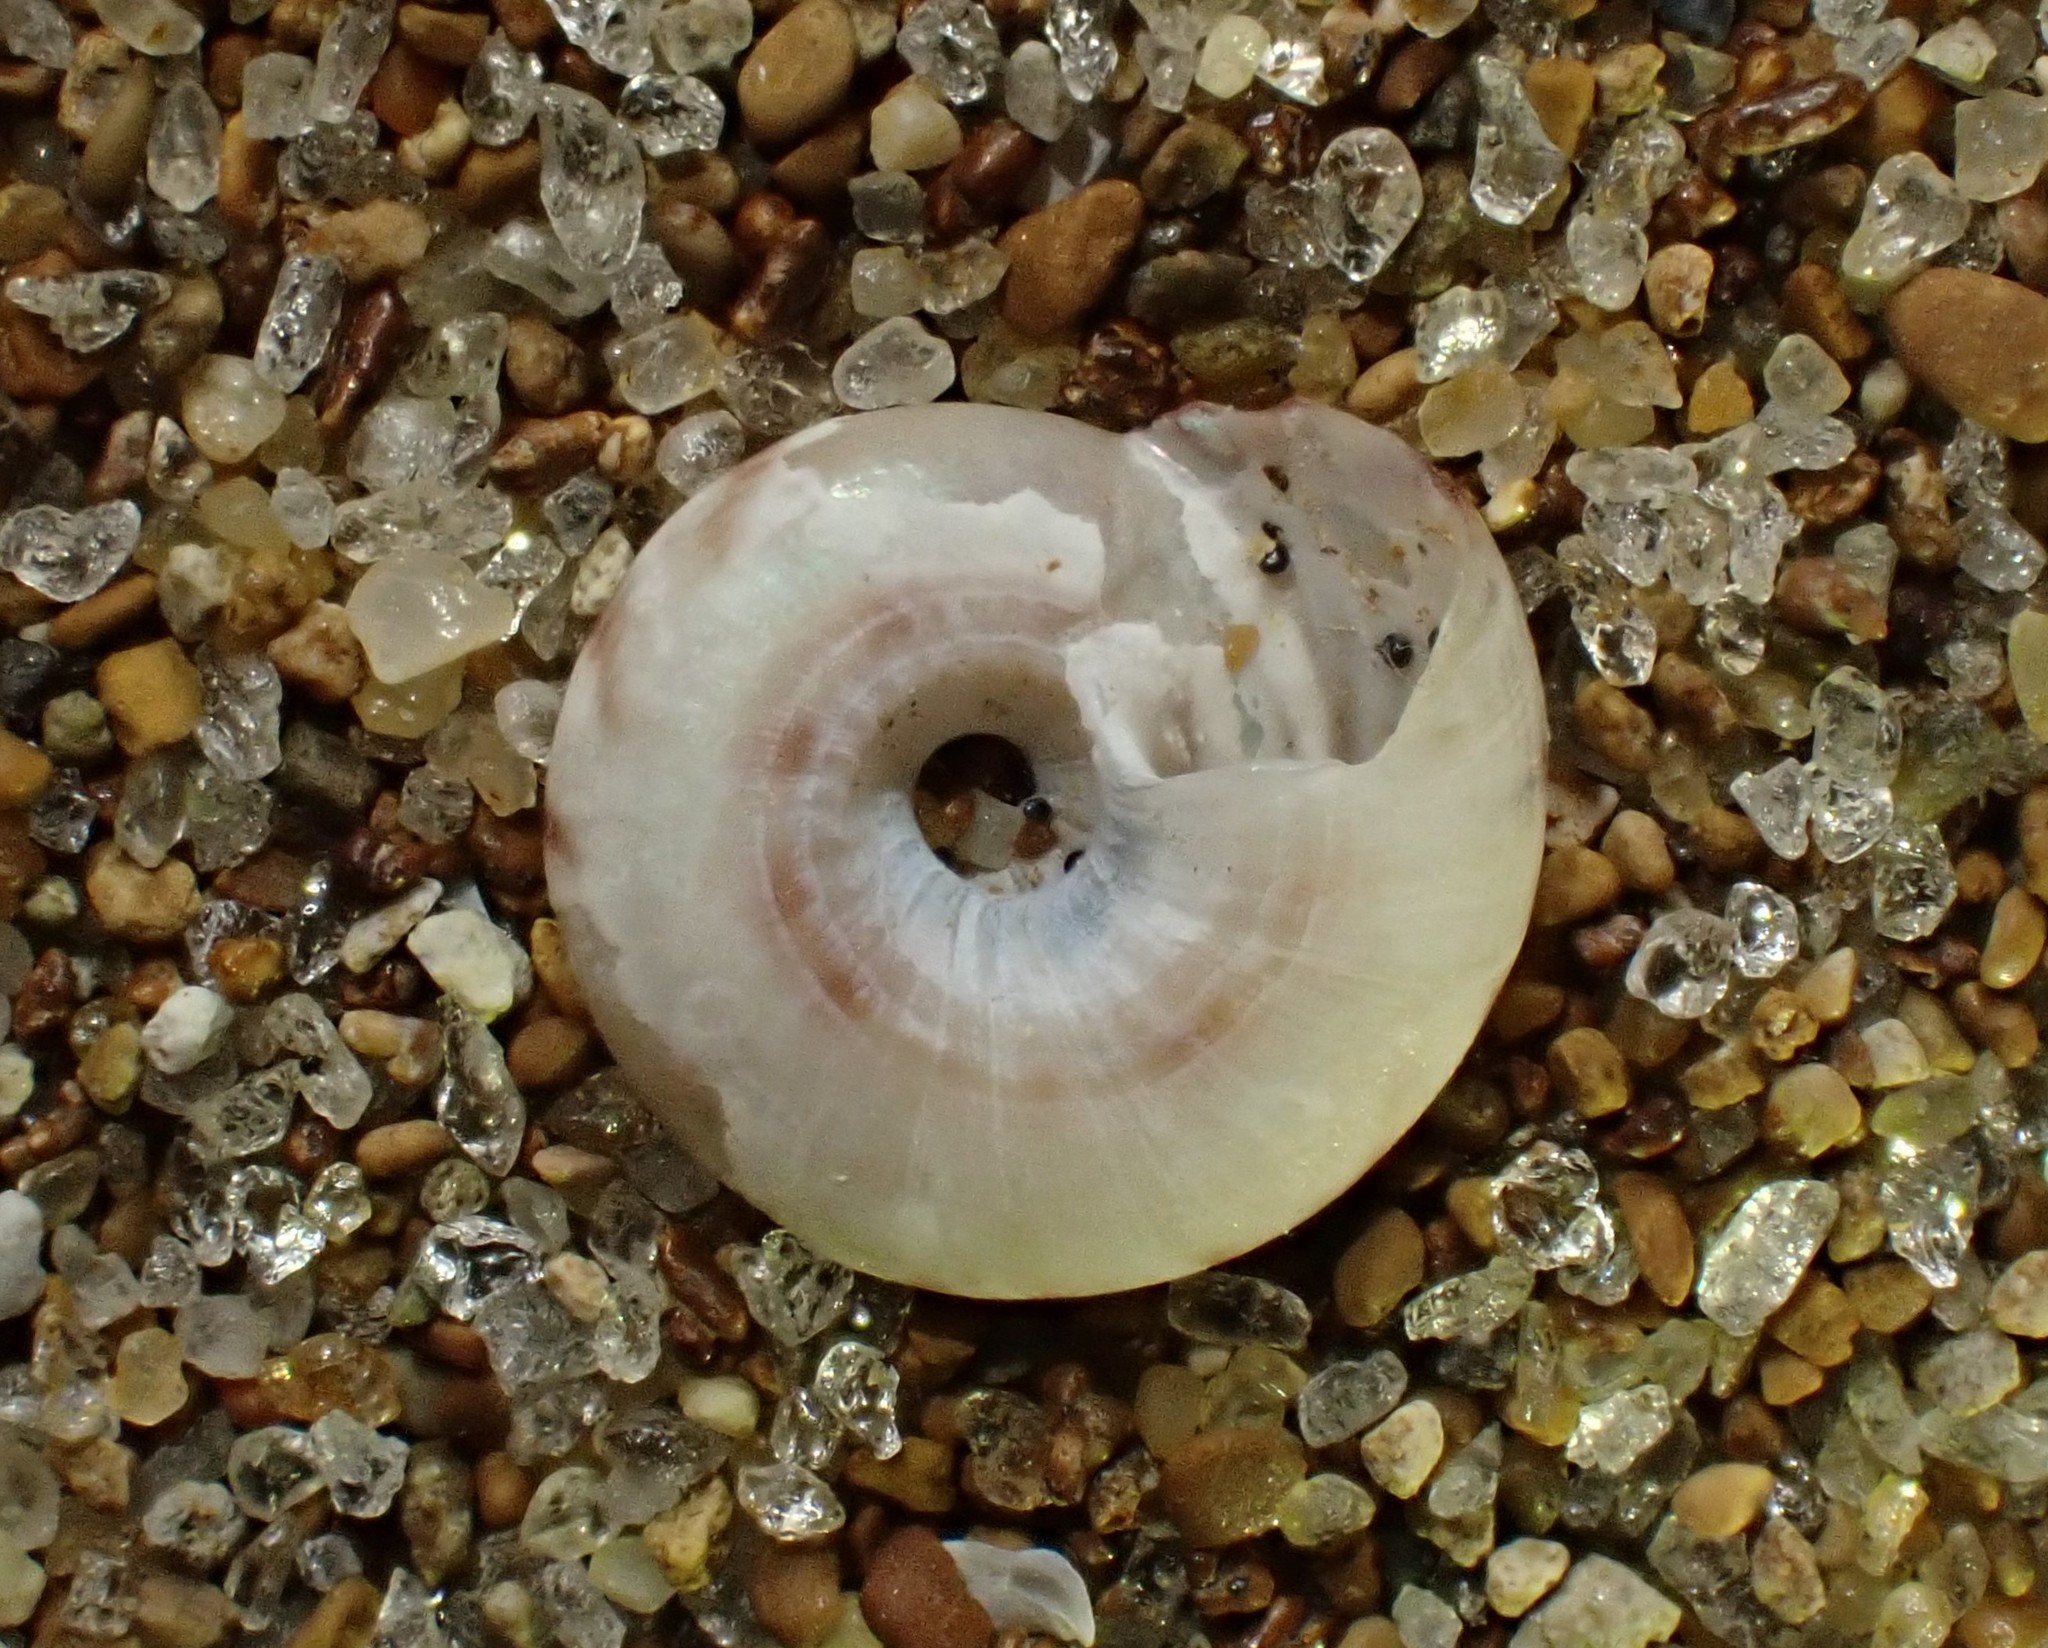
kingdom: Animalia
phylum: Mollusca
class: Gastropoda
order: Trochida
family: Trochidae
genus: Antisolarium
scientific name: Antisolarium egenum
